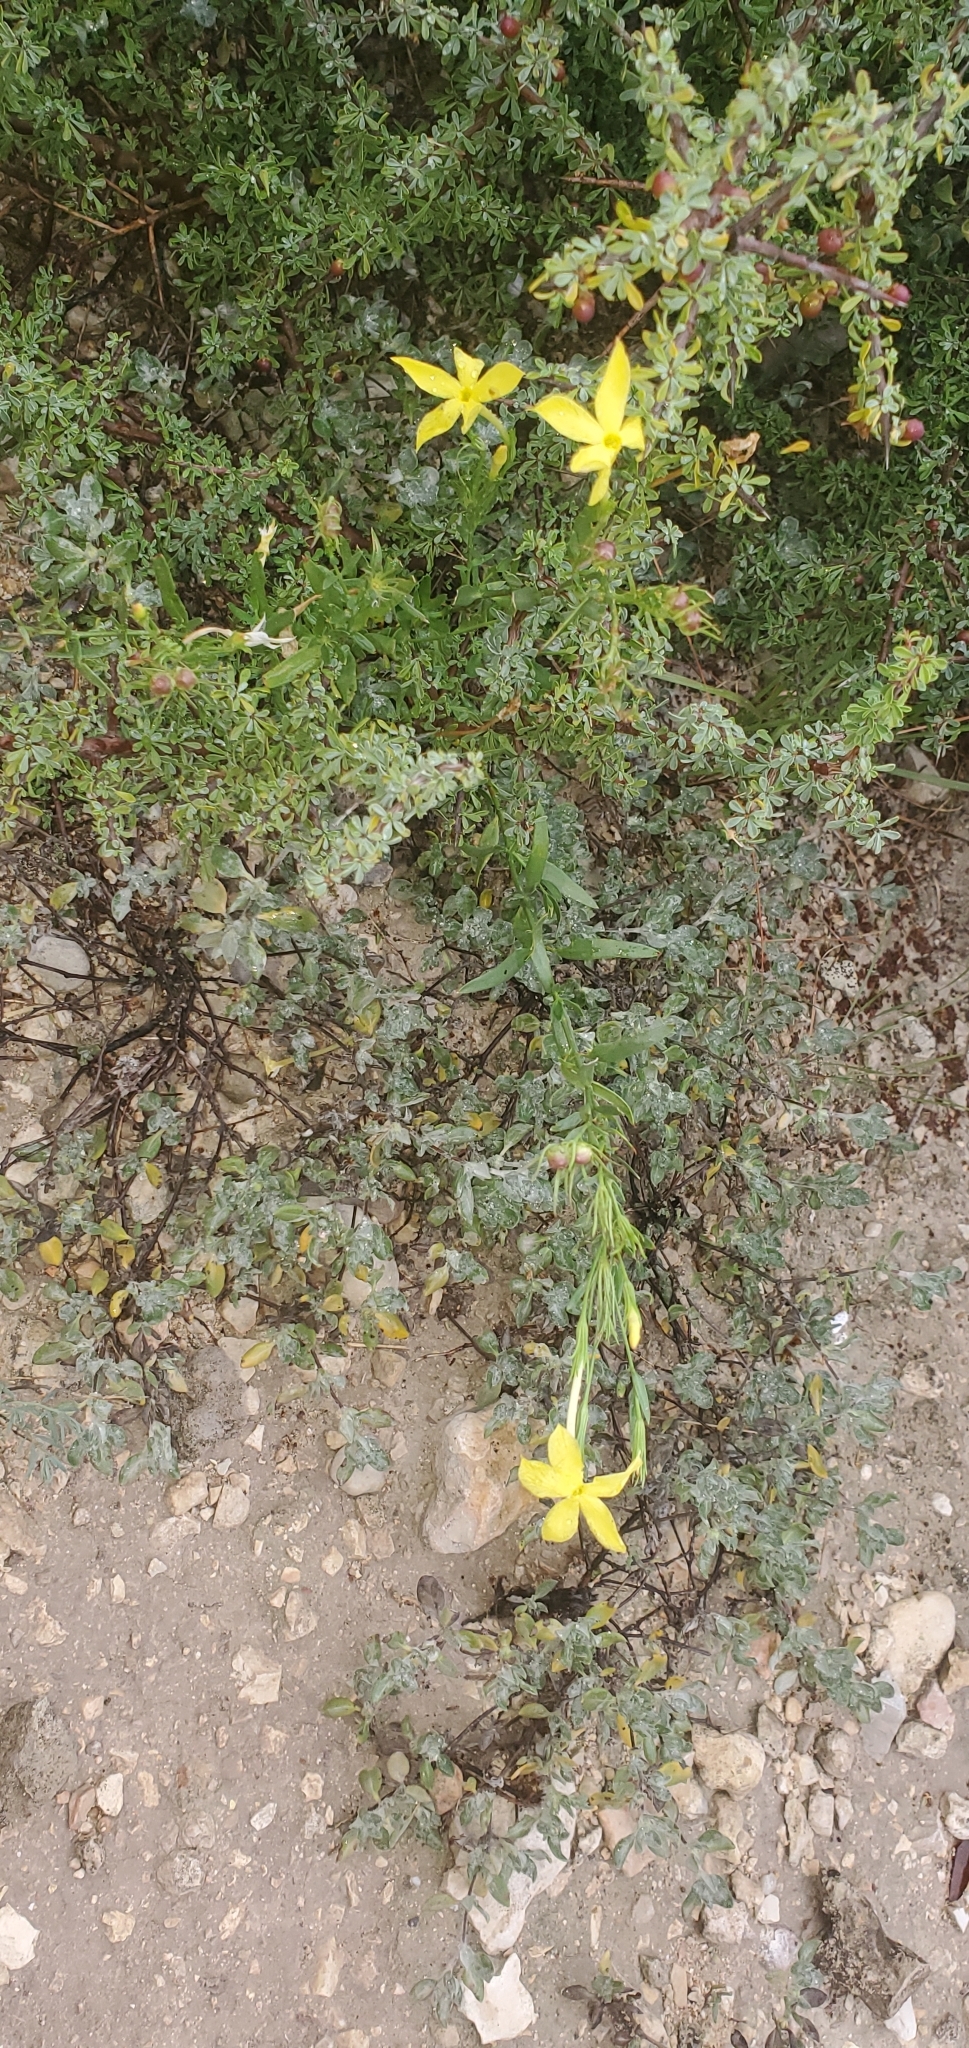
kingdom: Plantae
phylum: Tracheophyta
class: Magnoliopsida
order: Lamiales
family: Oleaceae
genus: Menodora
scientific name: Menodora longiflora
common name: Showy menodora
